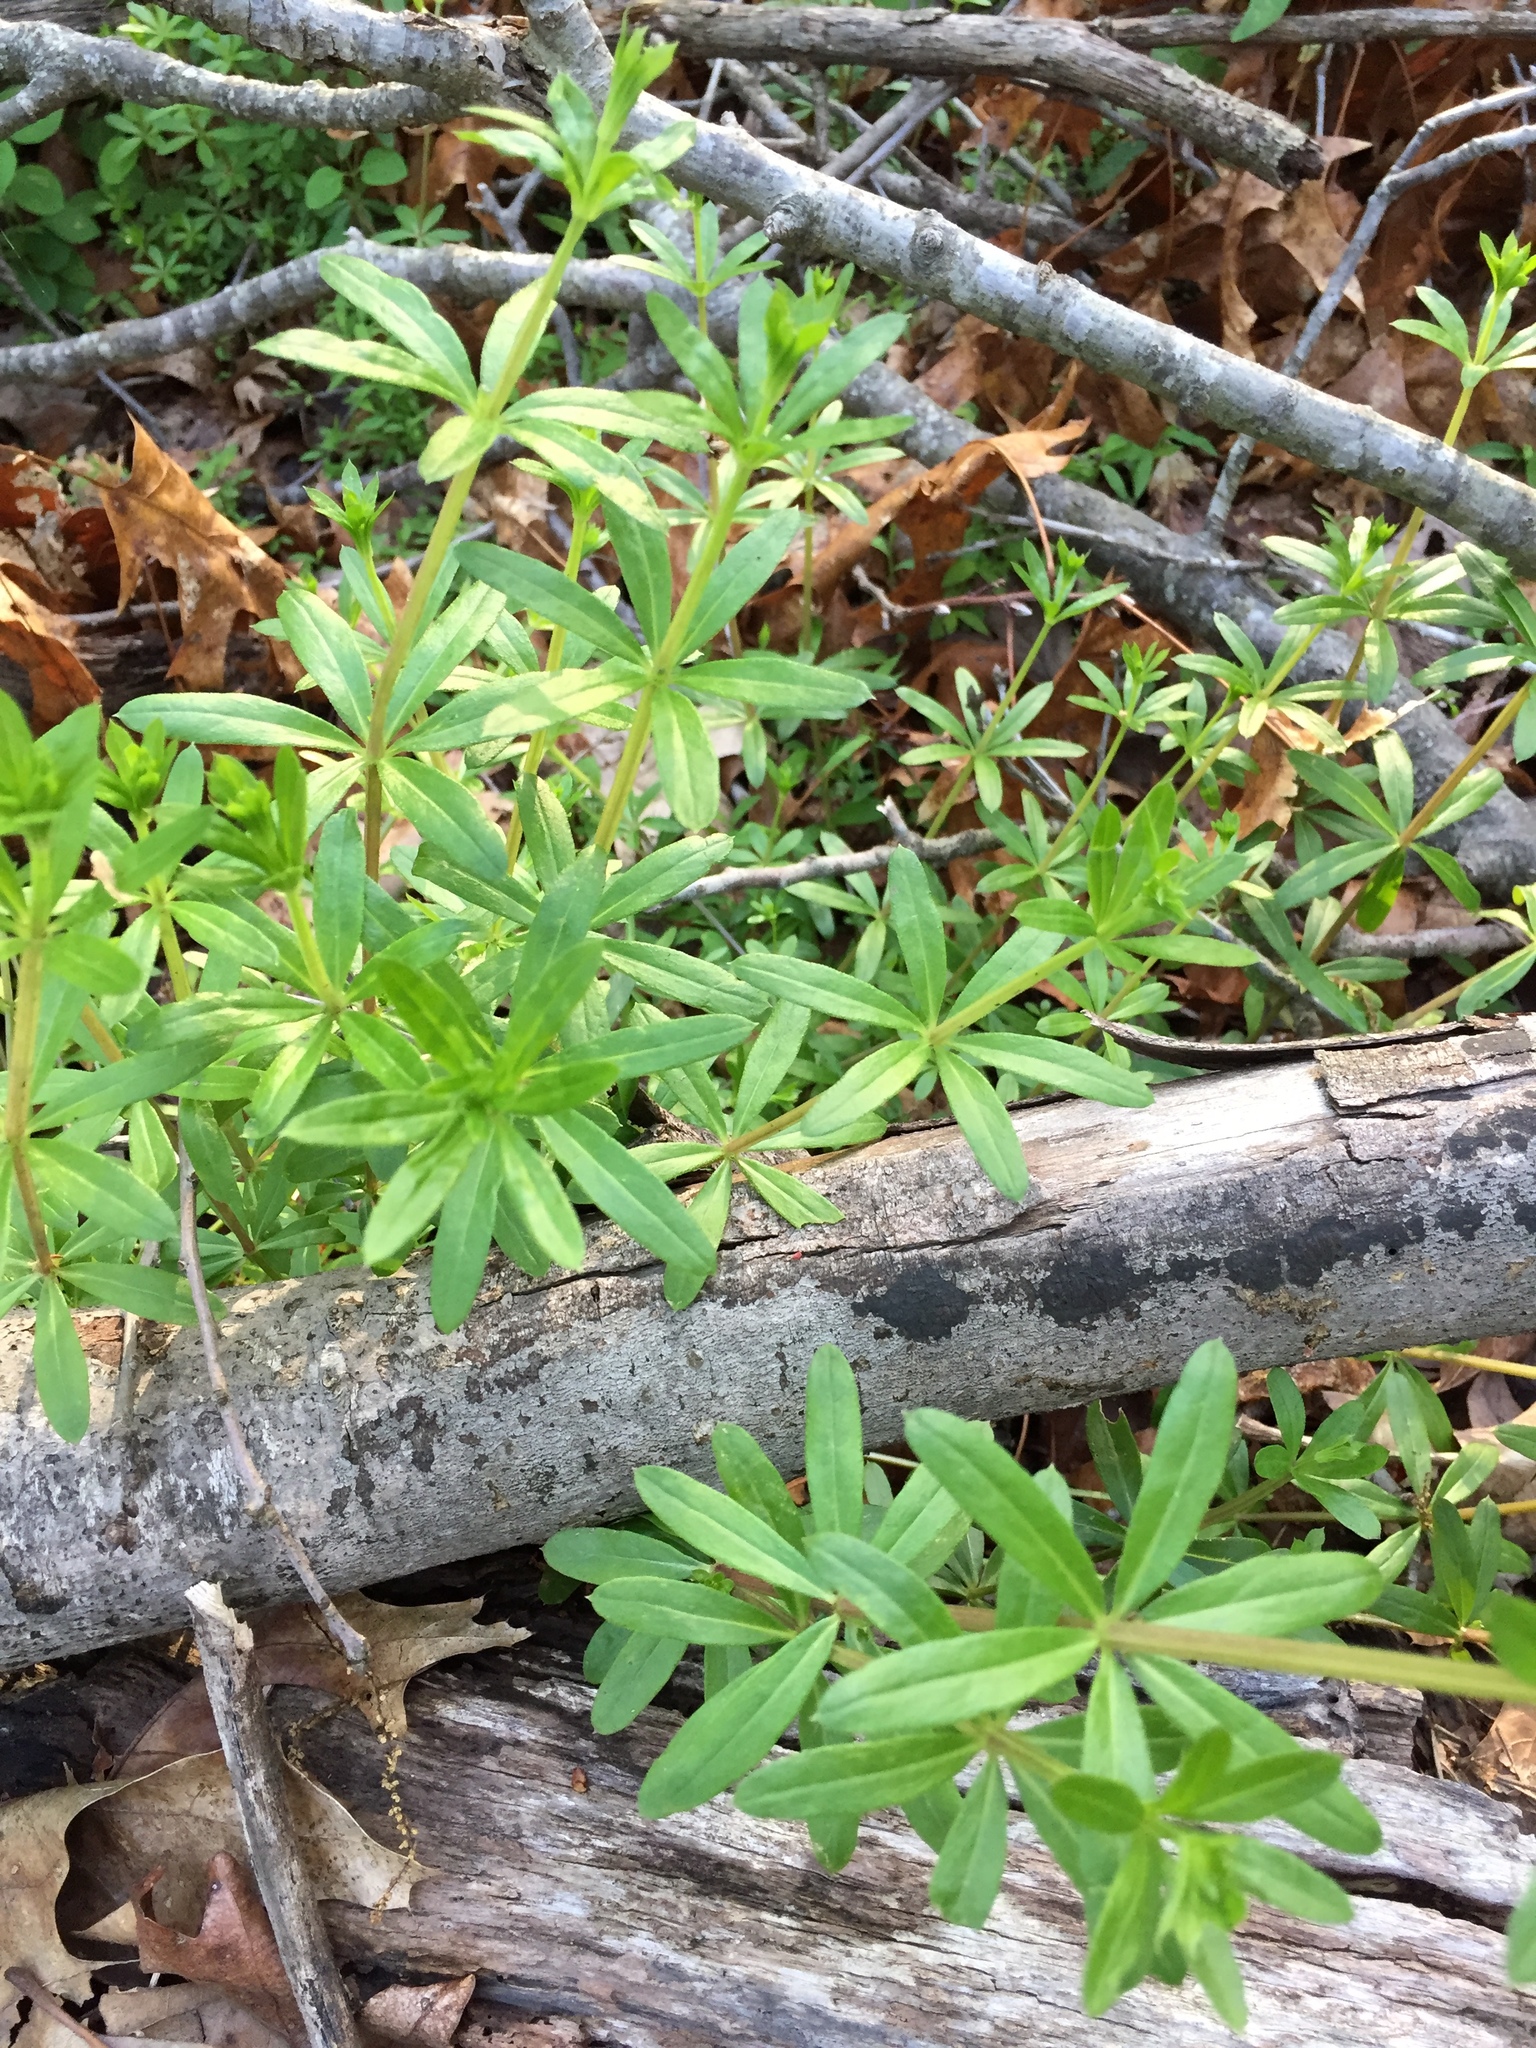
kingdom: Plantae
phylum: Tracheophyta
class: Magnoliopsida
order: Gentianales
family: Rubiaceae
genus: Galium
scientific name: Galium triflorum
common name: Fragrant bedstraw
